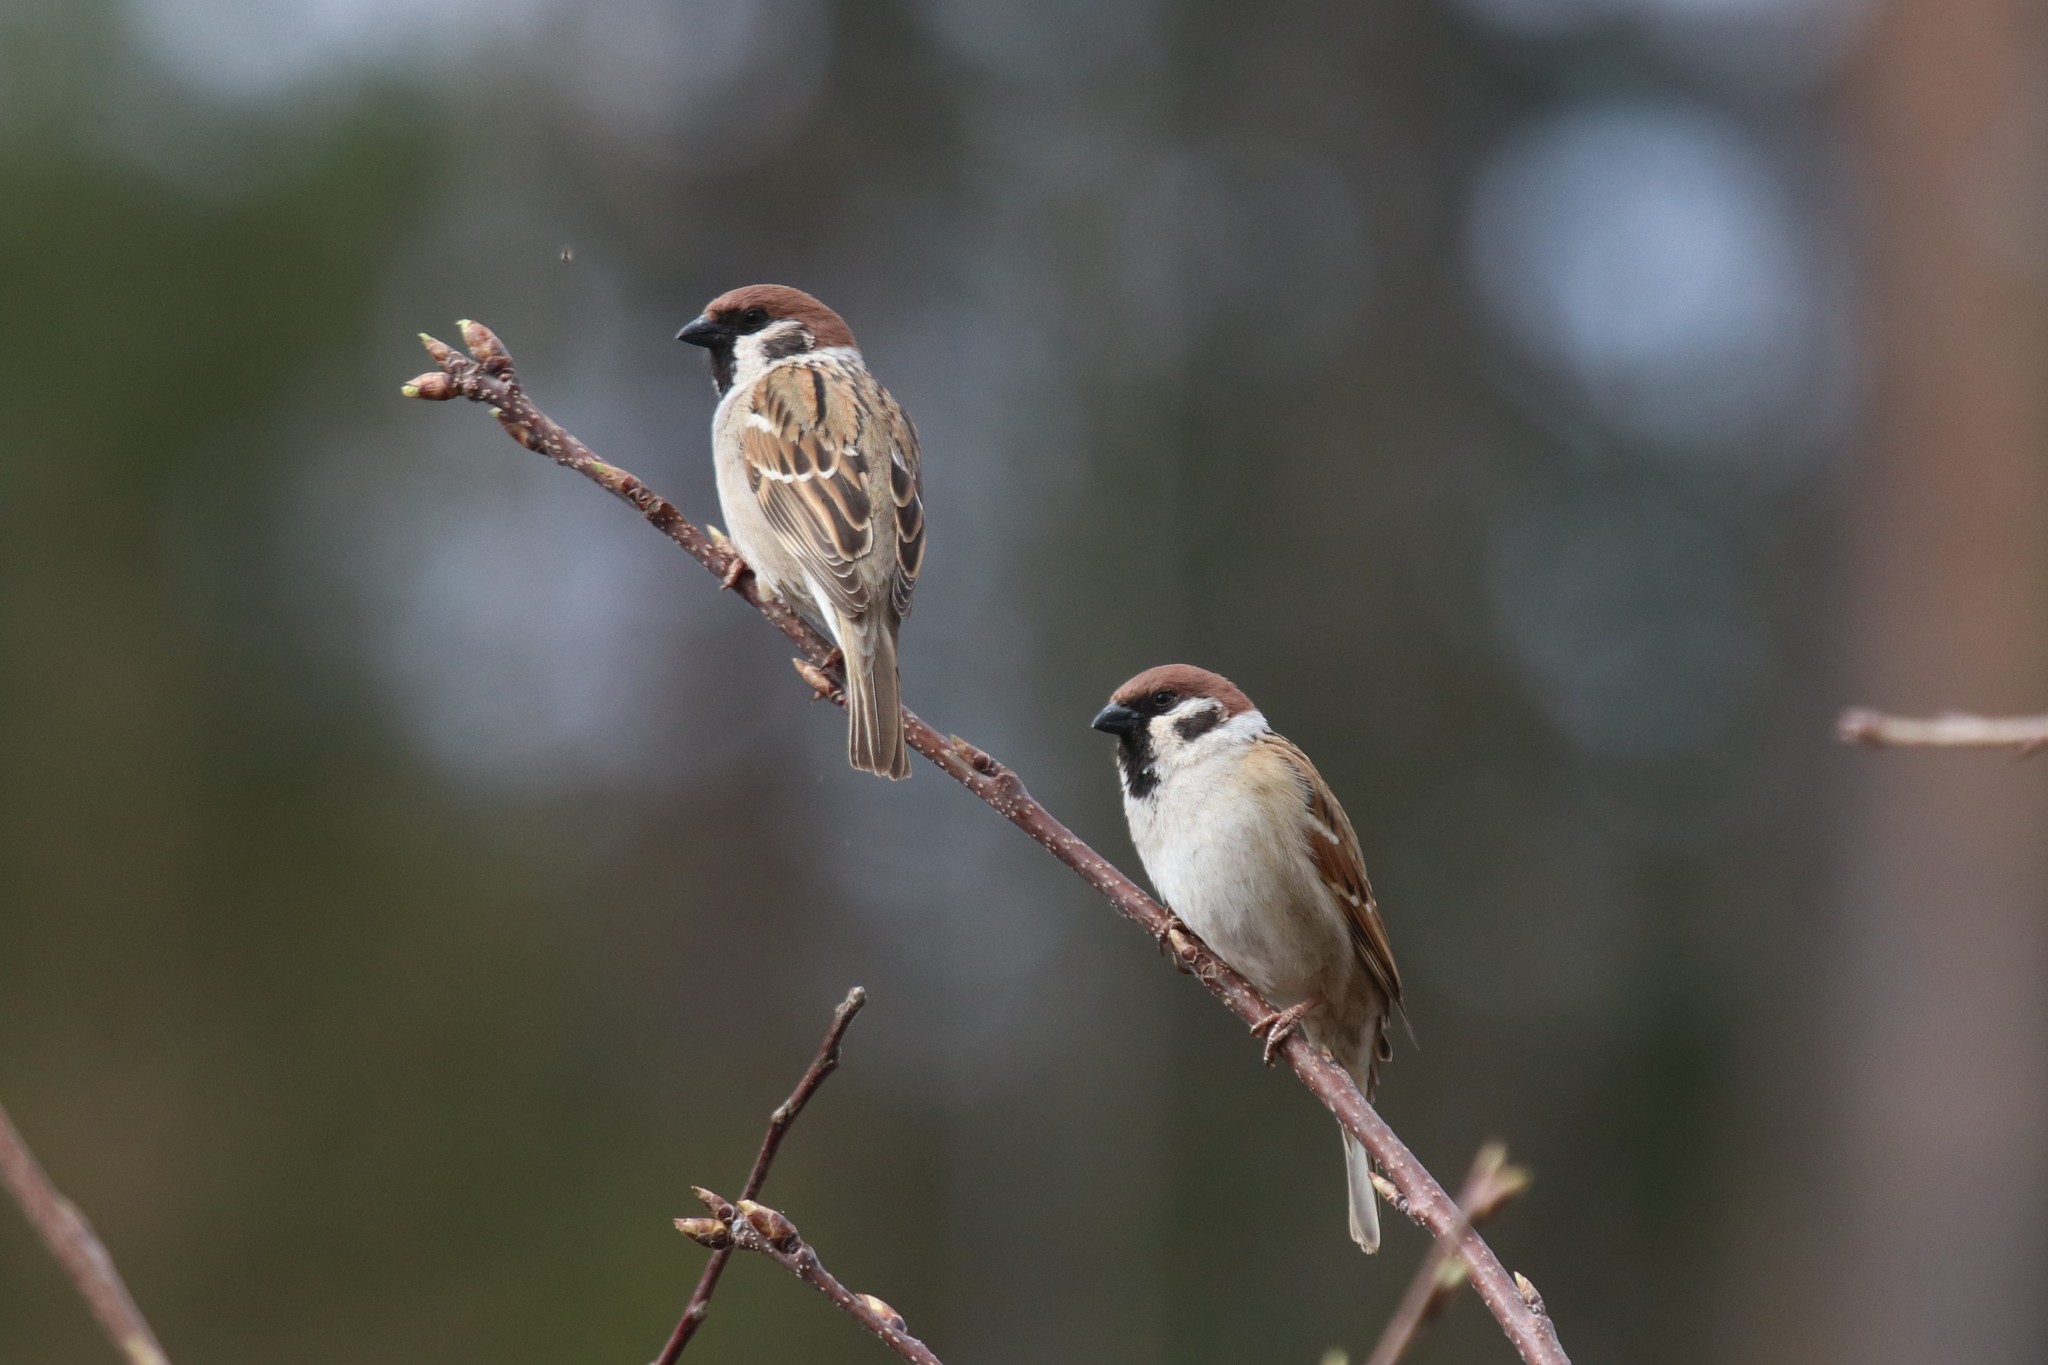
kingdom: Animalia
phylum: Chordata
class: Aves
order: Passeriformes
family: Passeridae
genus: Passer
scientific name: Passer montanus
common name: Eurasian tree sparrow
